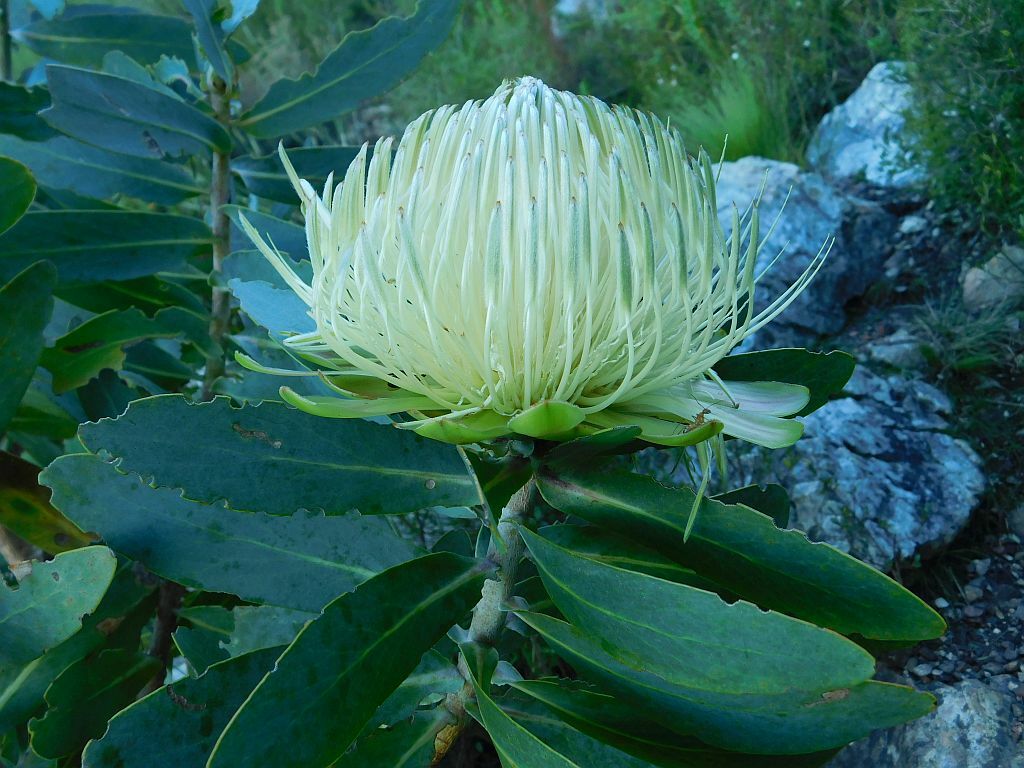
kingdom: Plantae
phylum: Tracheophyta
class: Magnoliopsida
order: Proteales
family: Proteaceae
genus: Protea
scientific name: Protea nitida
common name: Tree protea
